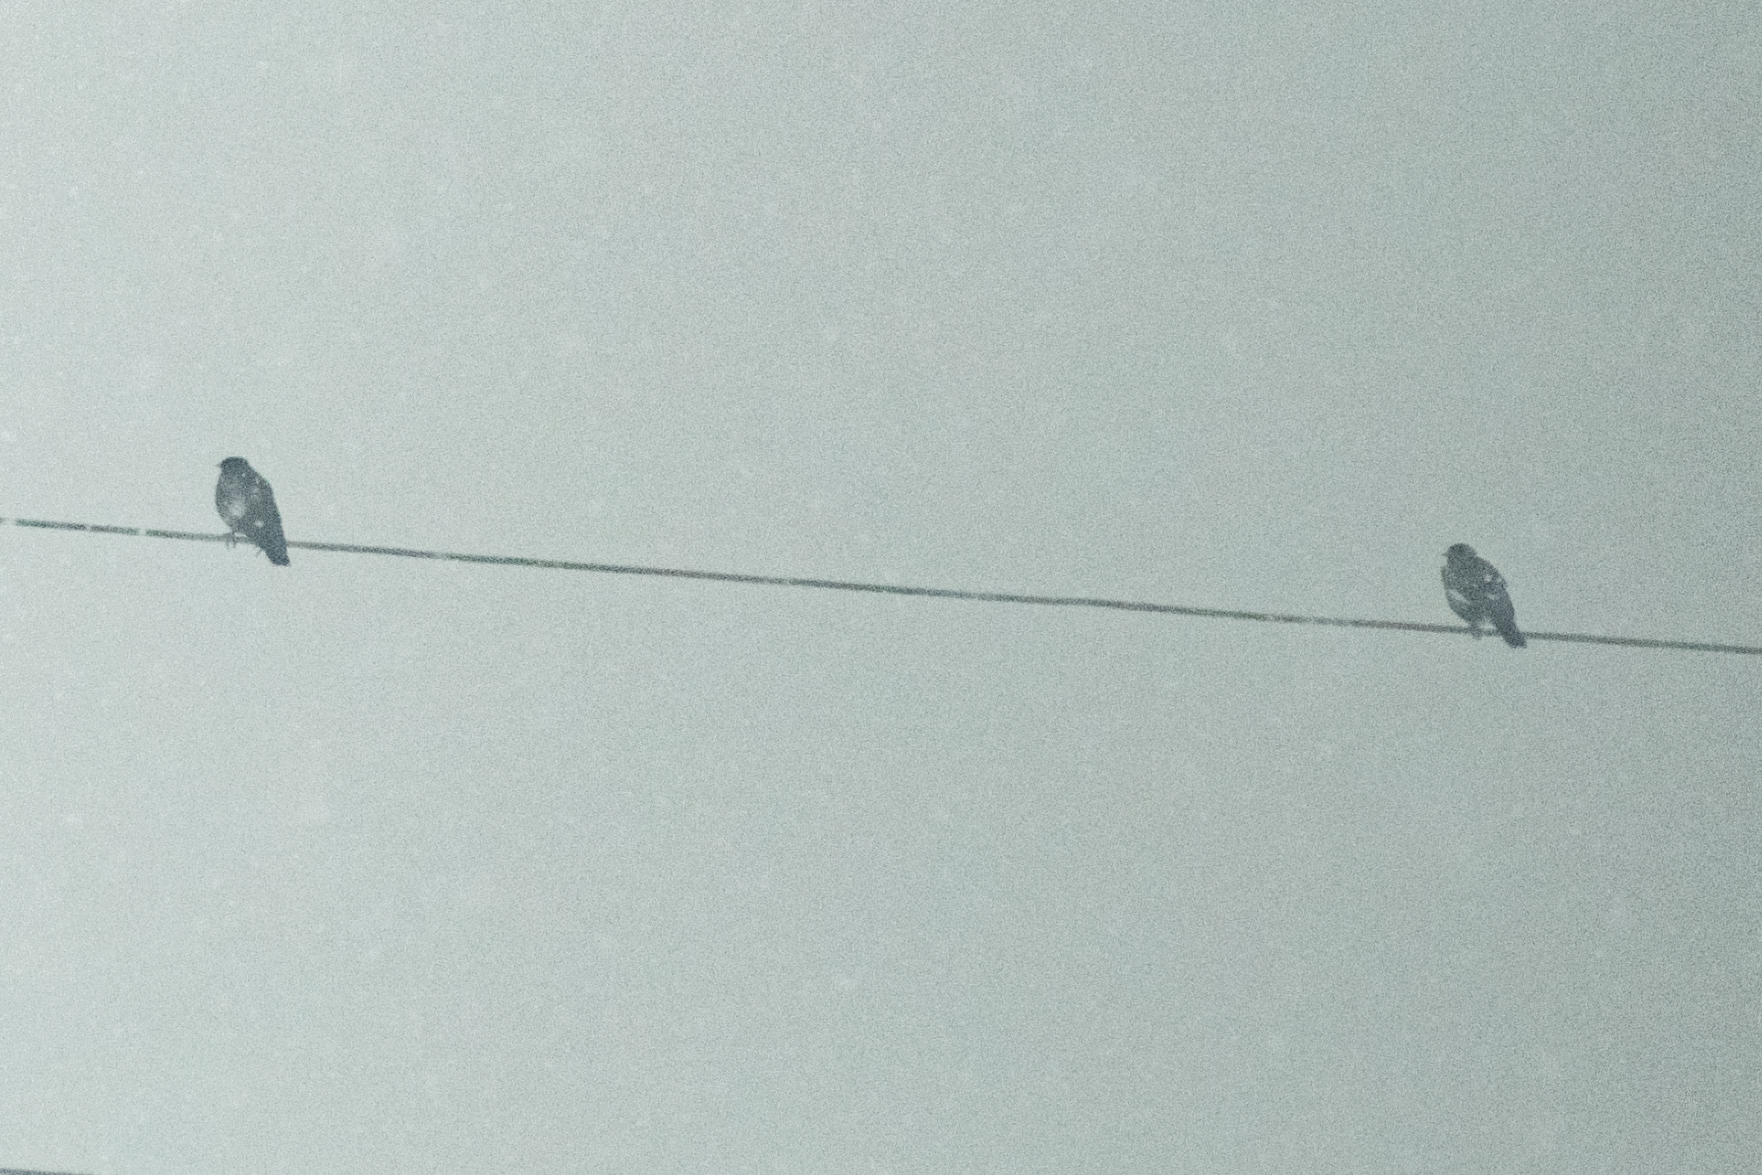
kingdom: Animalia
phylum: Chordata
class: Aves
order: Passeriformes
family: Sturnidae
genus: Acridotheres
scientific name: Acridotheres tristis
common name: Common myna
